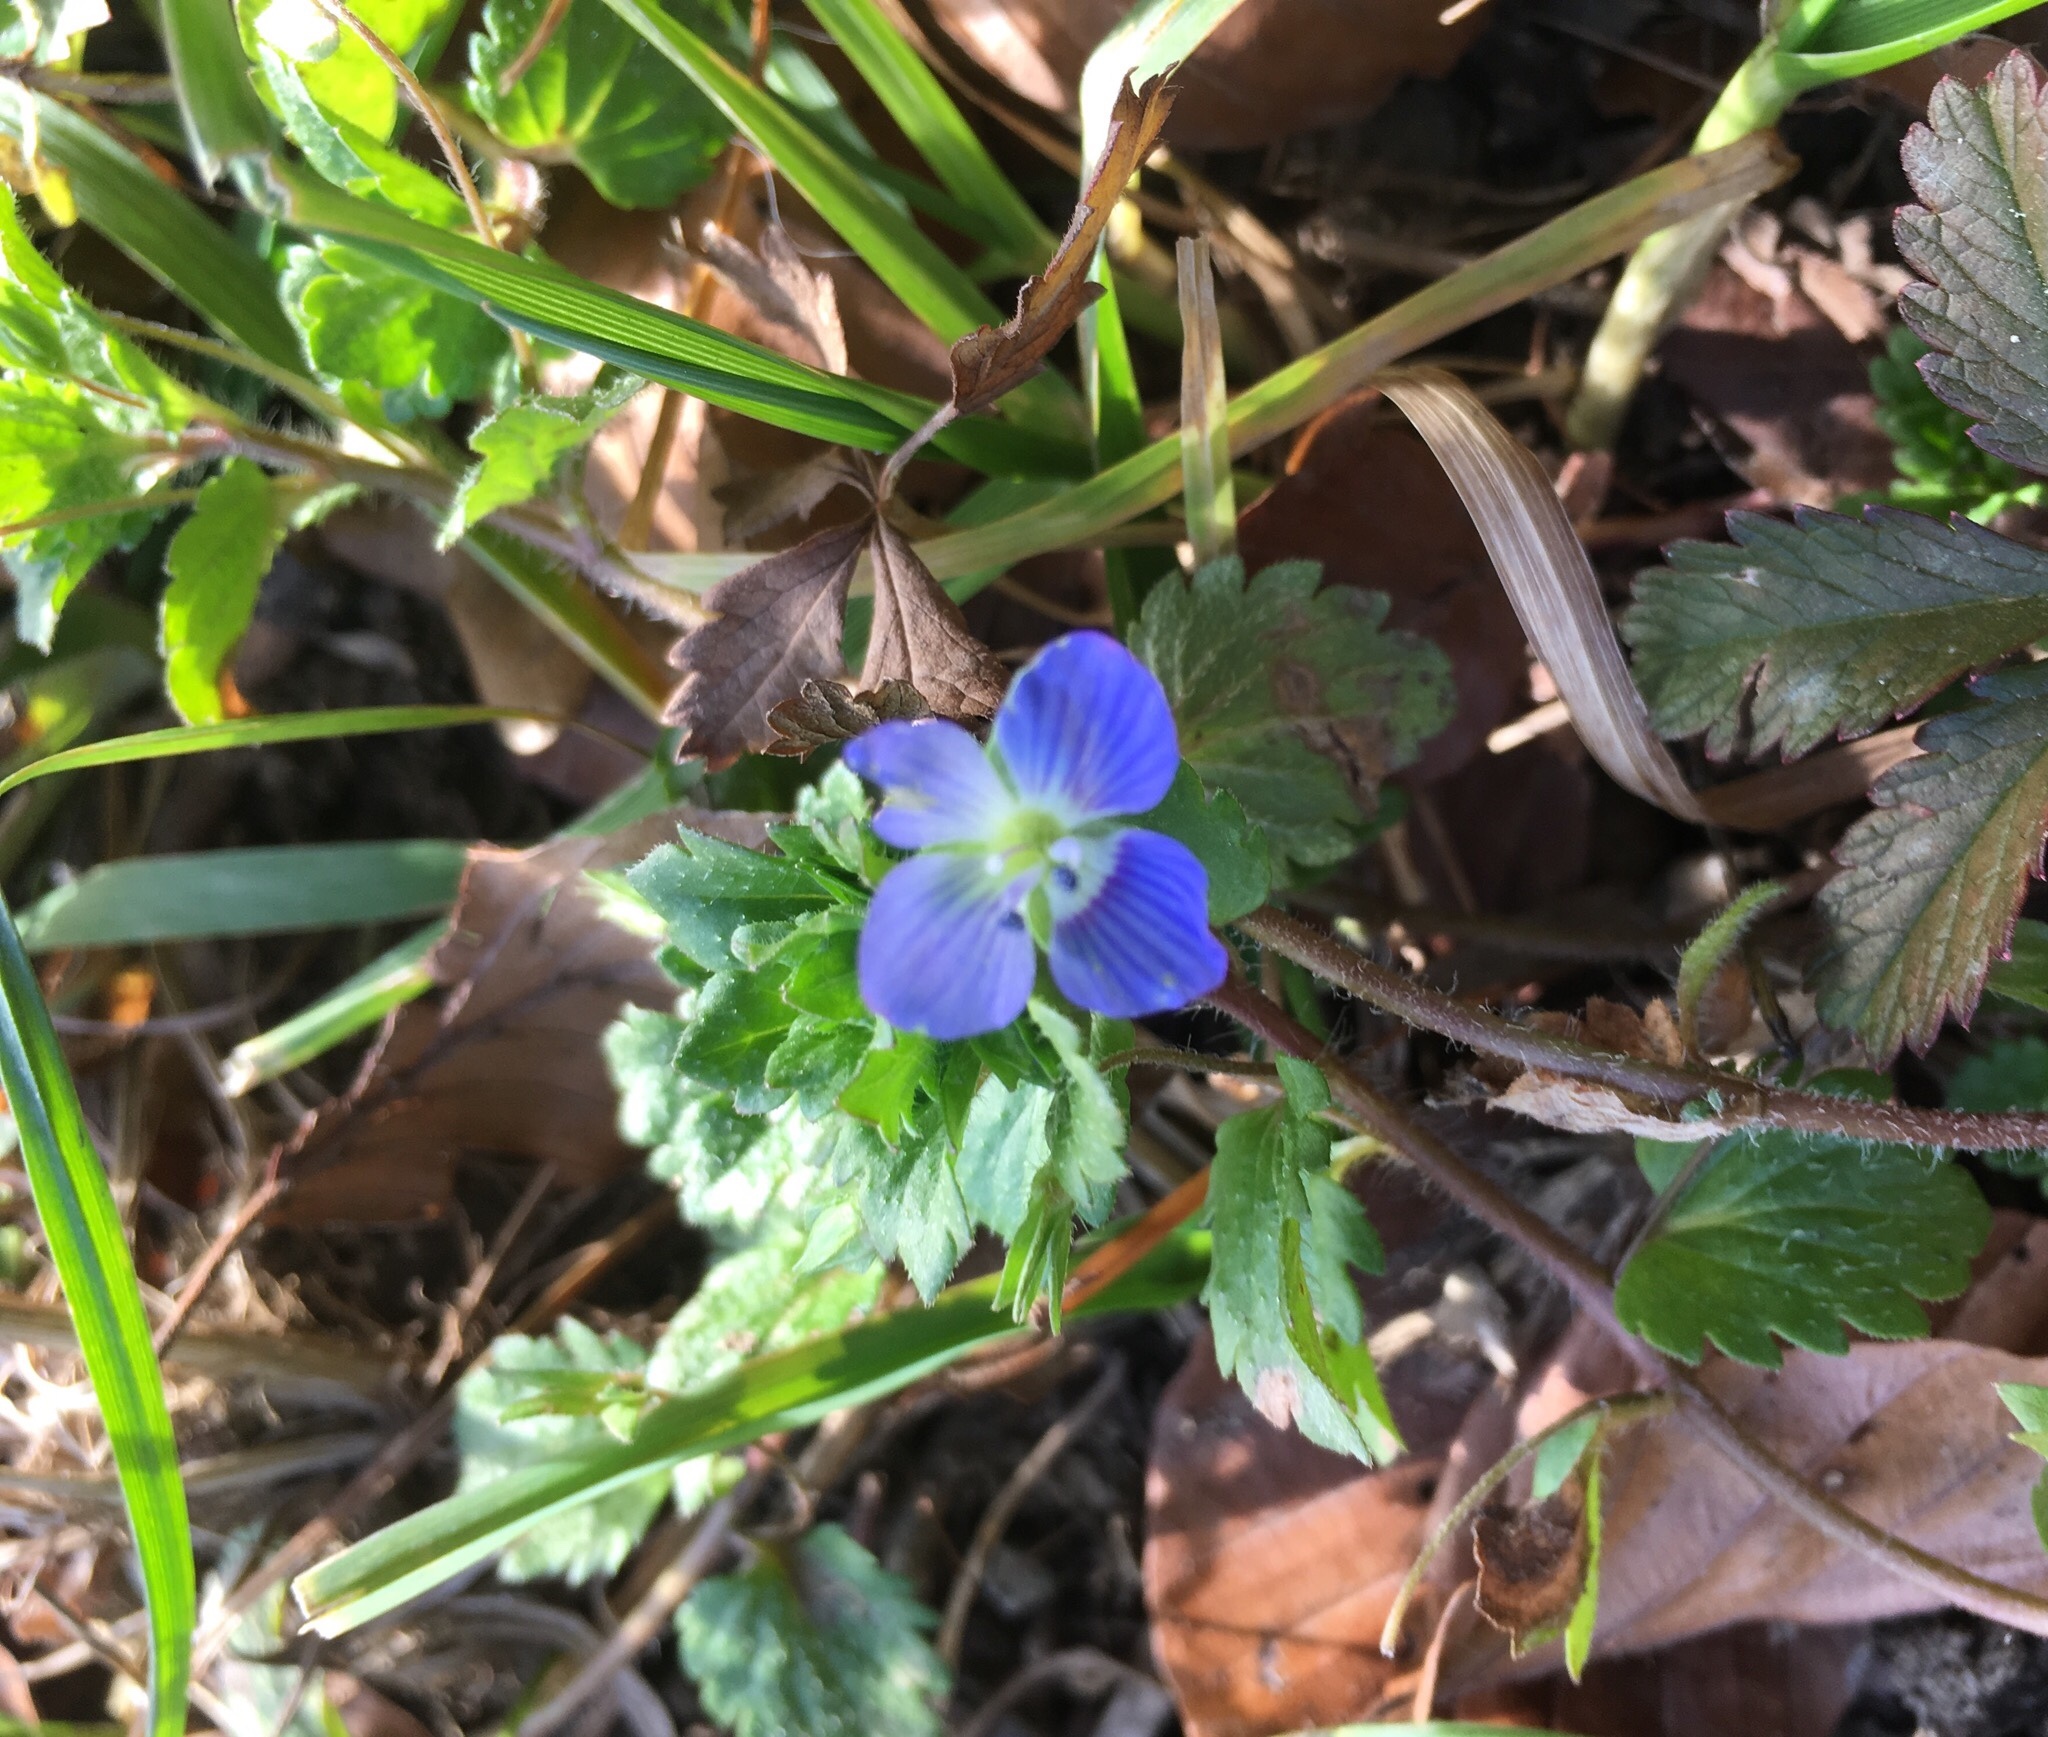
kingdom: Plantae
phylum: Tracheophyta
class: Magnoliopsida
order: Lamiales
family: Plantaginaceae
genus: Veronica
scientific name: Veronica persica
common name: Common field-speedwell
